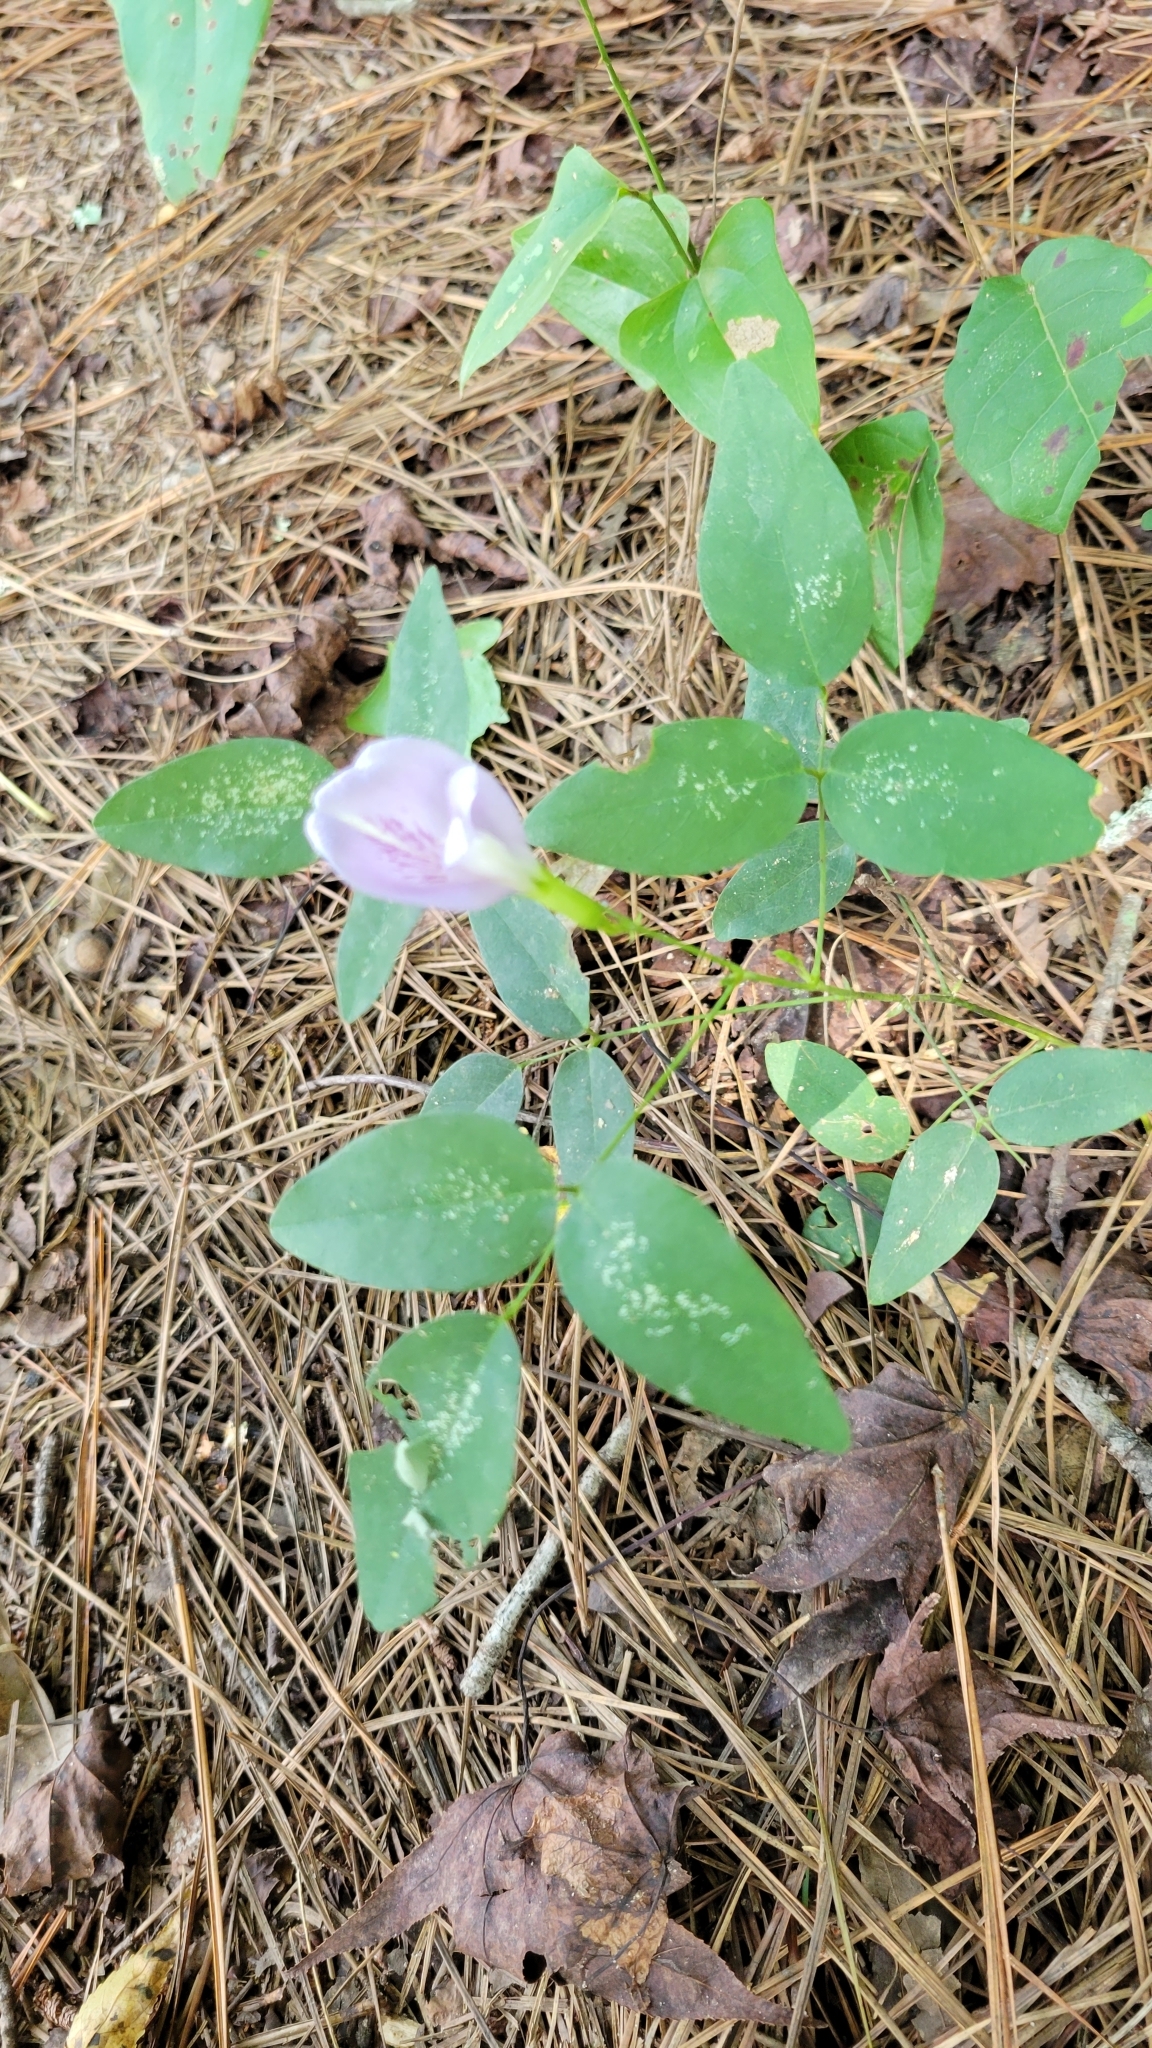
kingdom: Plantae
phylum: Tracheophyta
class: Magnoliopsida
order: Fabales
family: Fabaceae
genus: Clitoria
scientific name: Clitoria mariana
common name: Butterfly-pea
